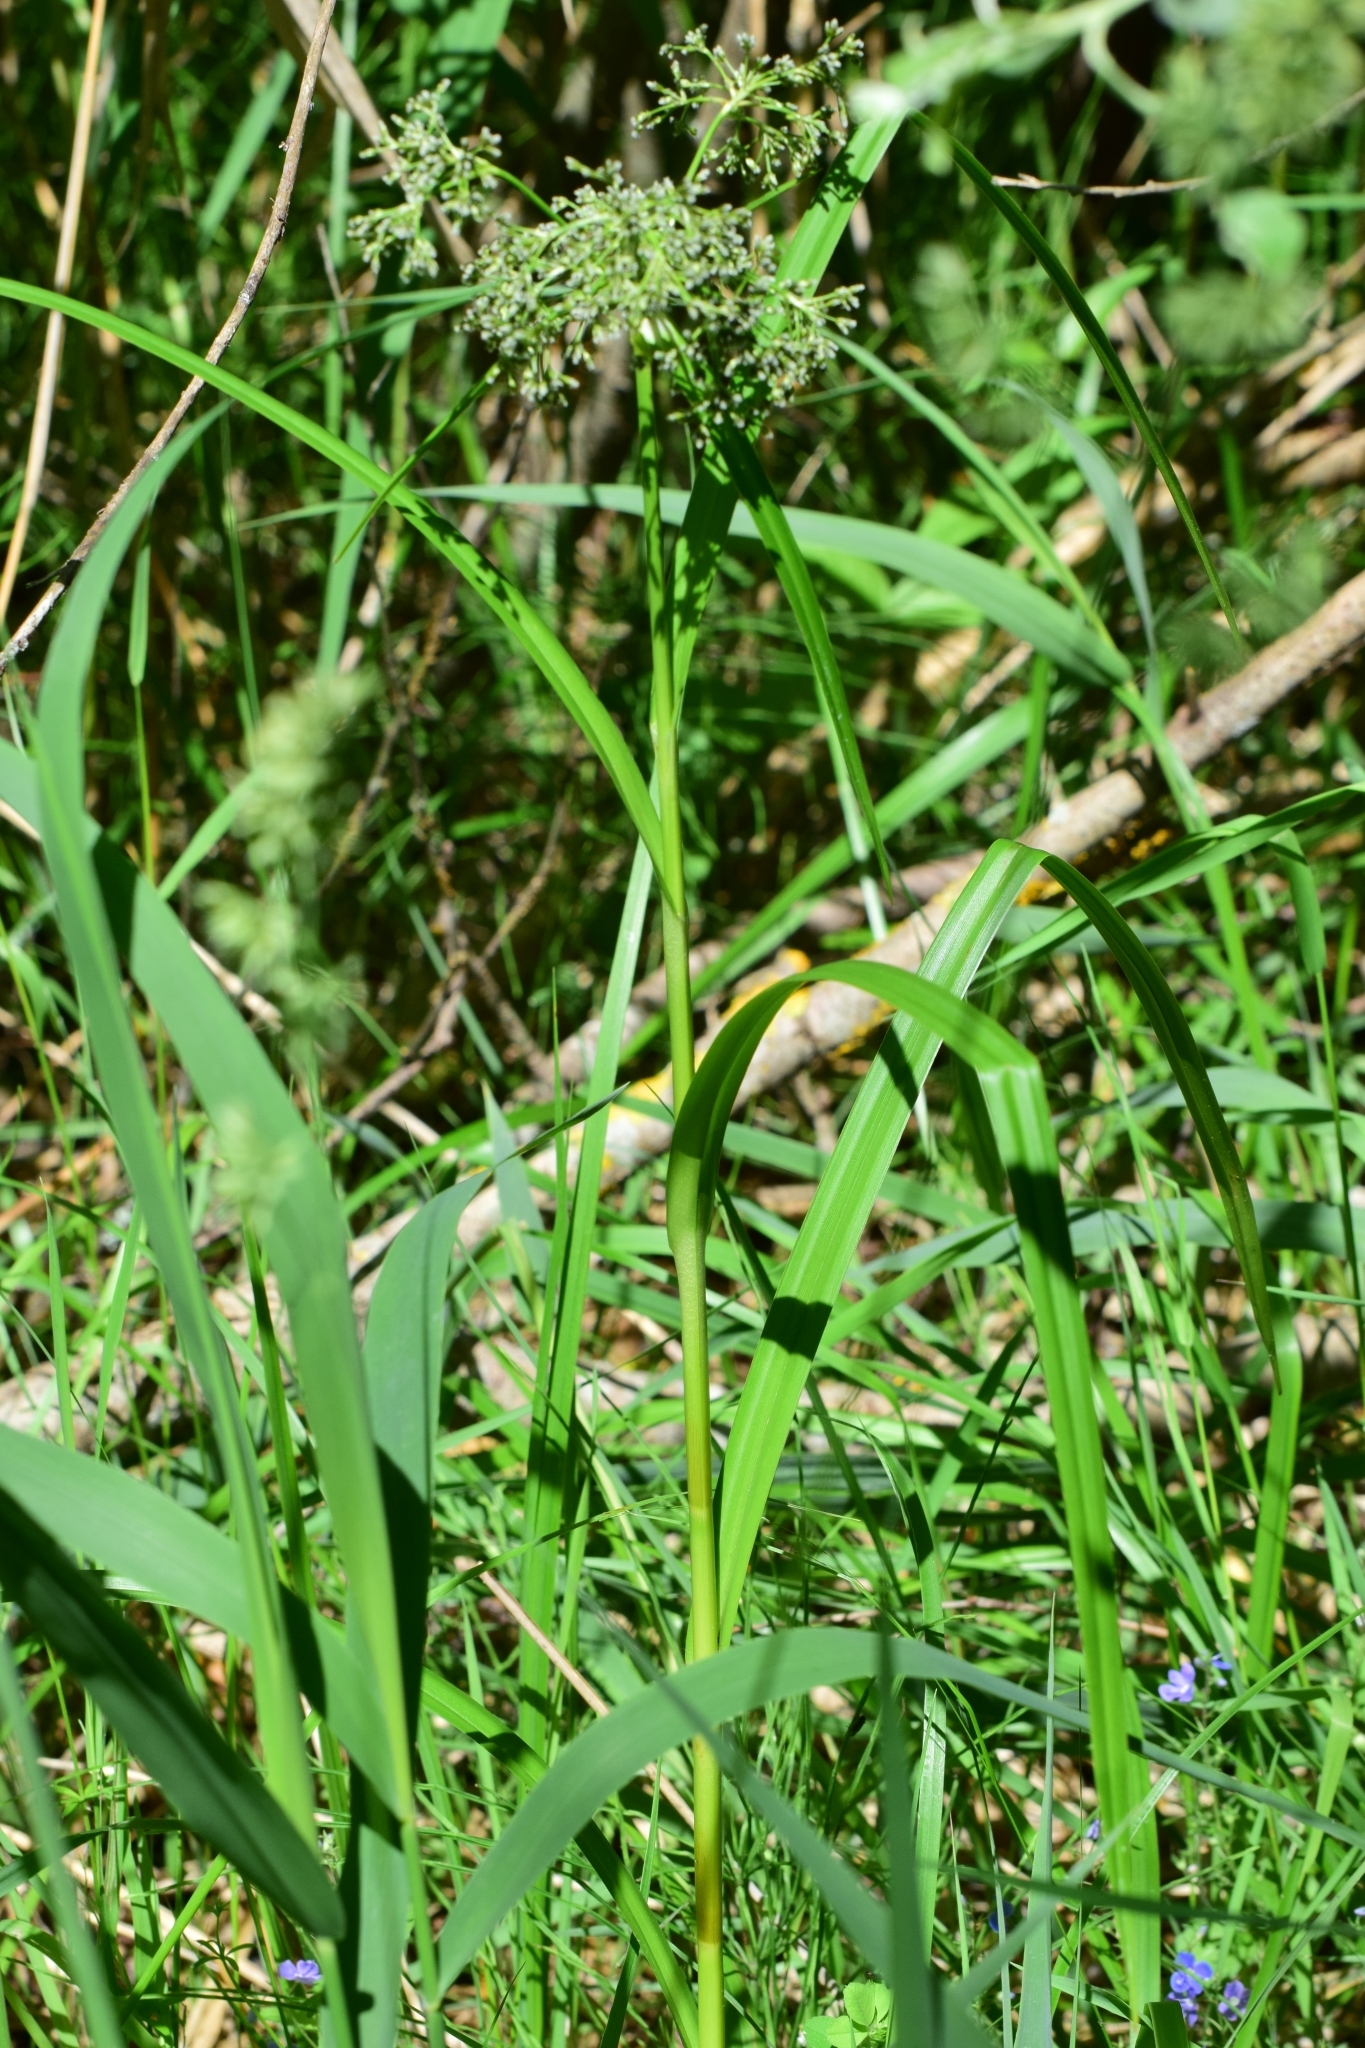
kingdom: Plantae
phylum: Tracheophyta
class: Liliopsida
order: Poales
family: Cyperaceae
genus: Scirpus
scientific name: Scirpus sylvaticus
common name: Wood club-rush
